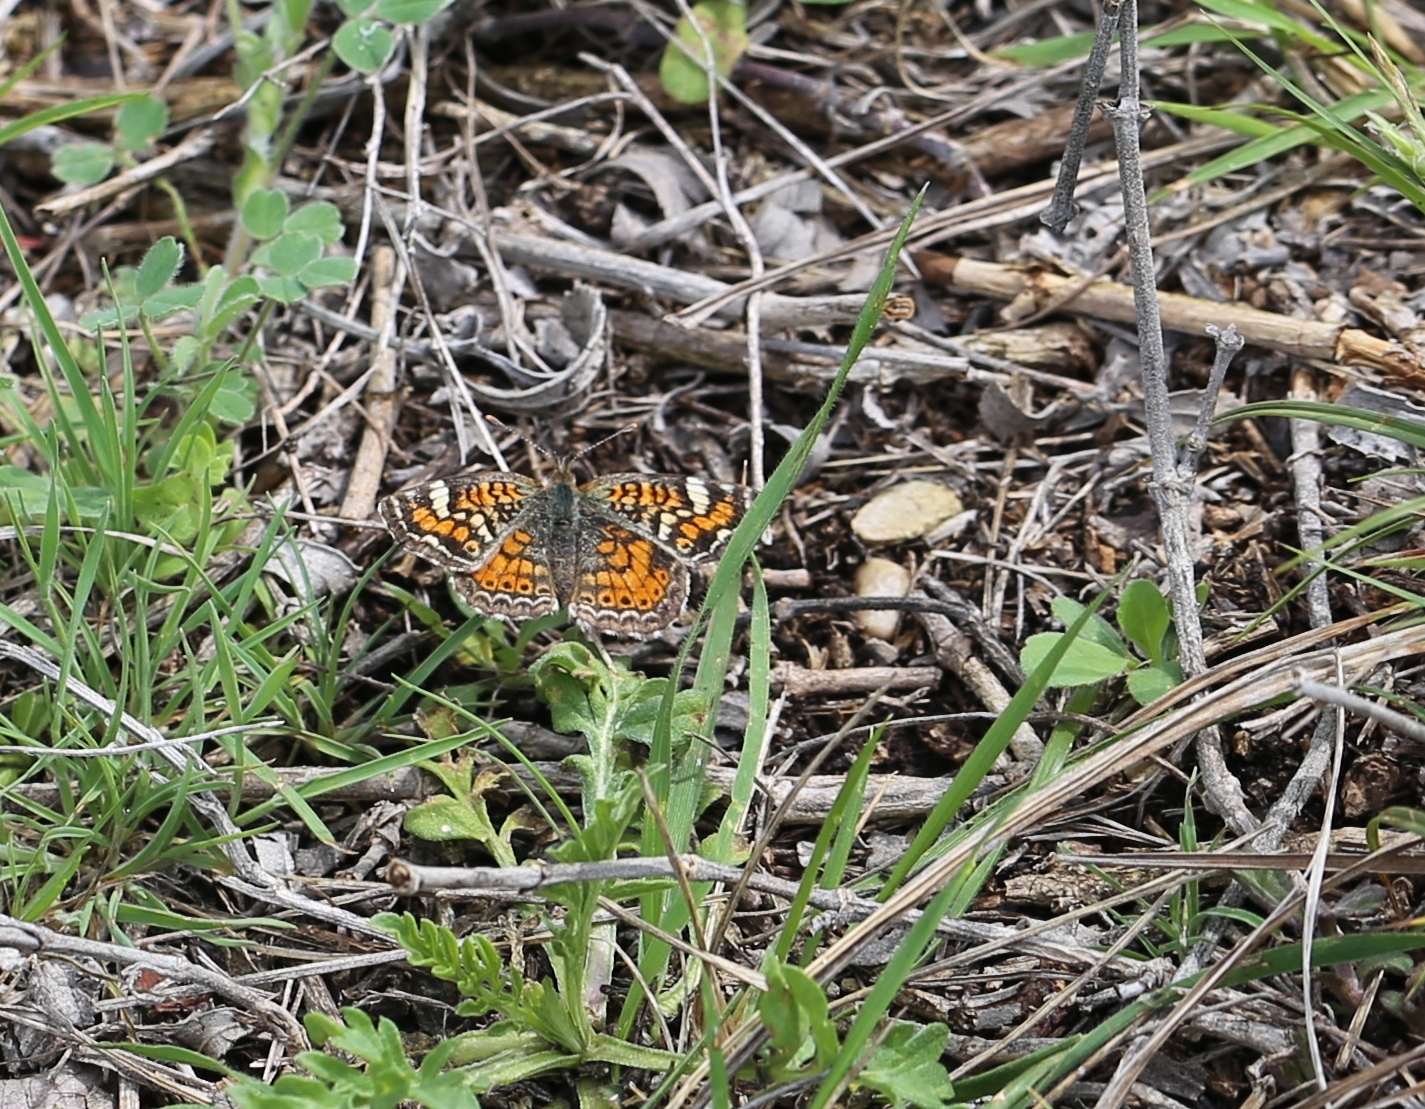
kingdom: Animalia
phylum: Arthropoda
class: Insecta
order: Lepidoptera
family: Nymphalidae
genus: Phyciodes
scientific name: Phyciodes phaon
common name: Phaon crescent
